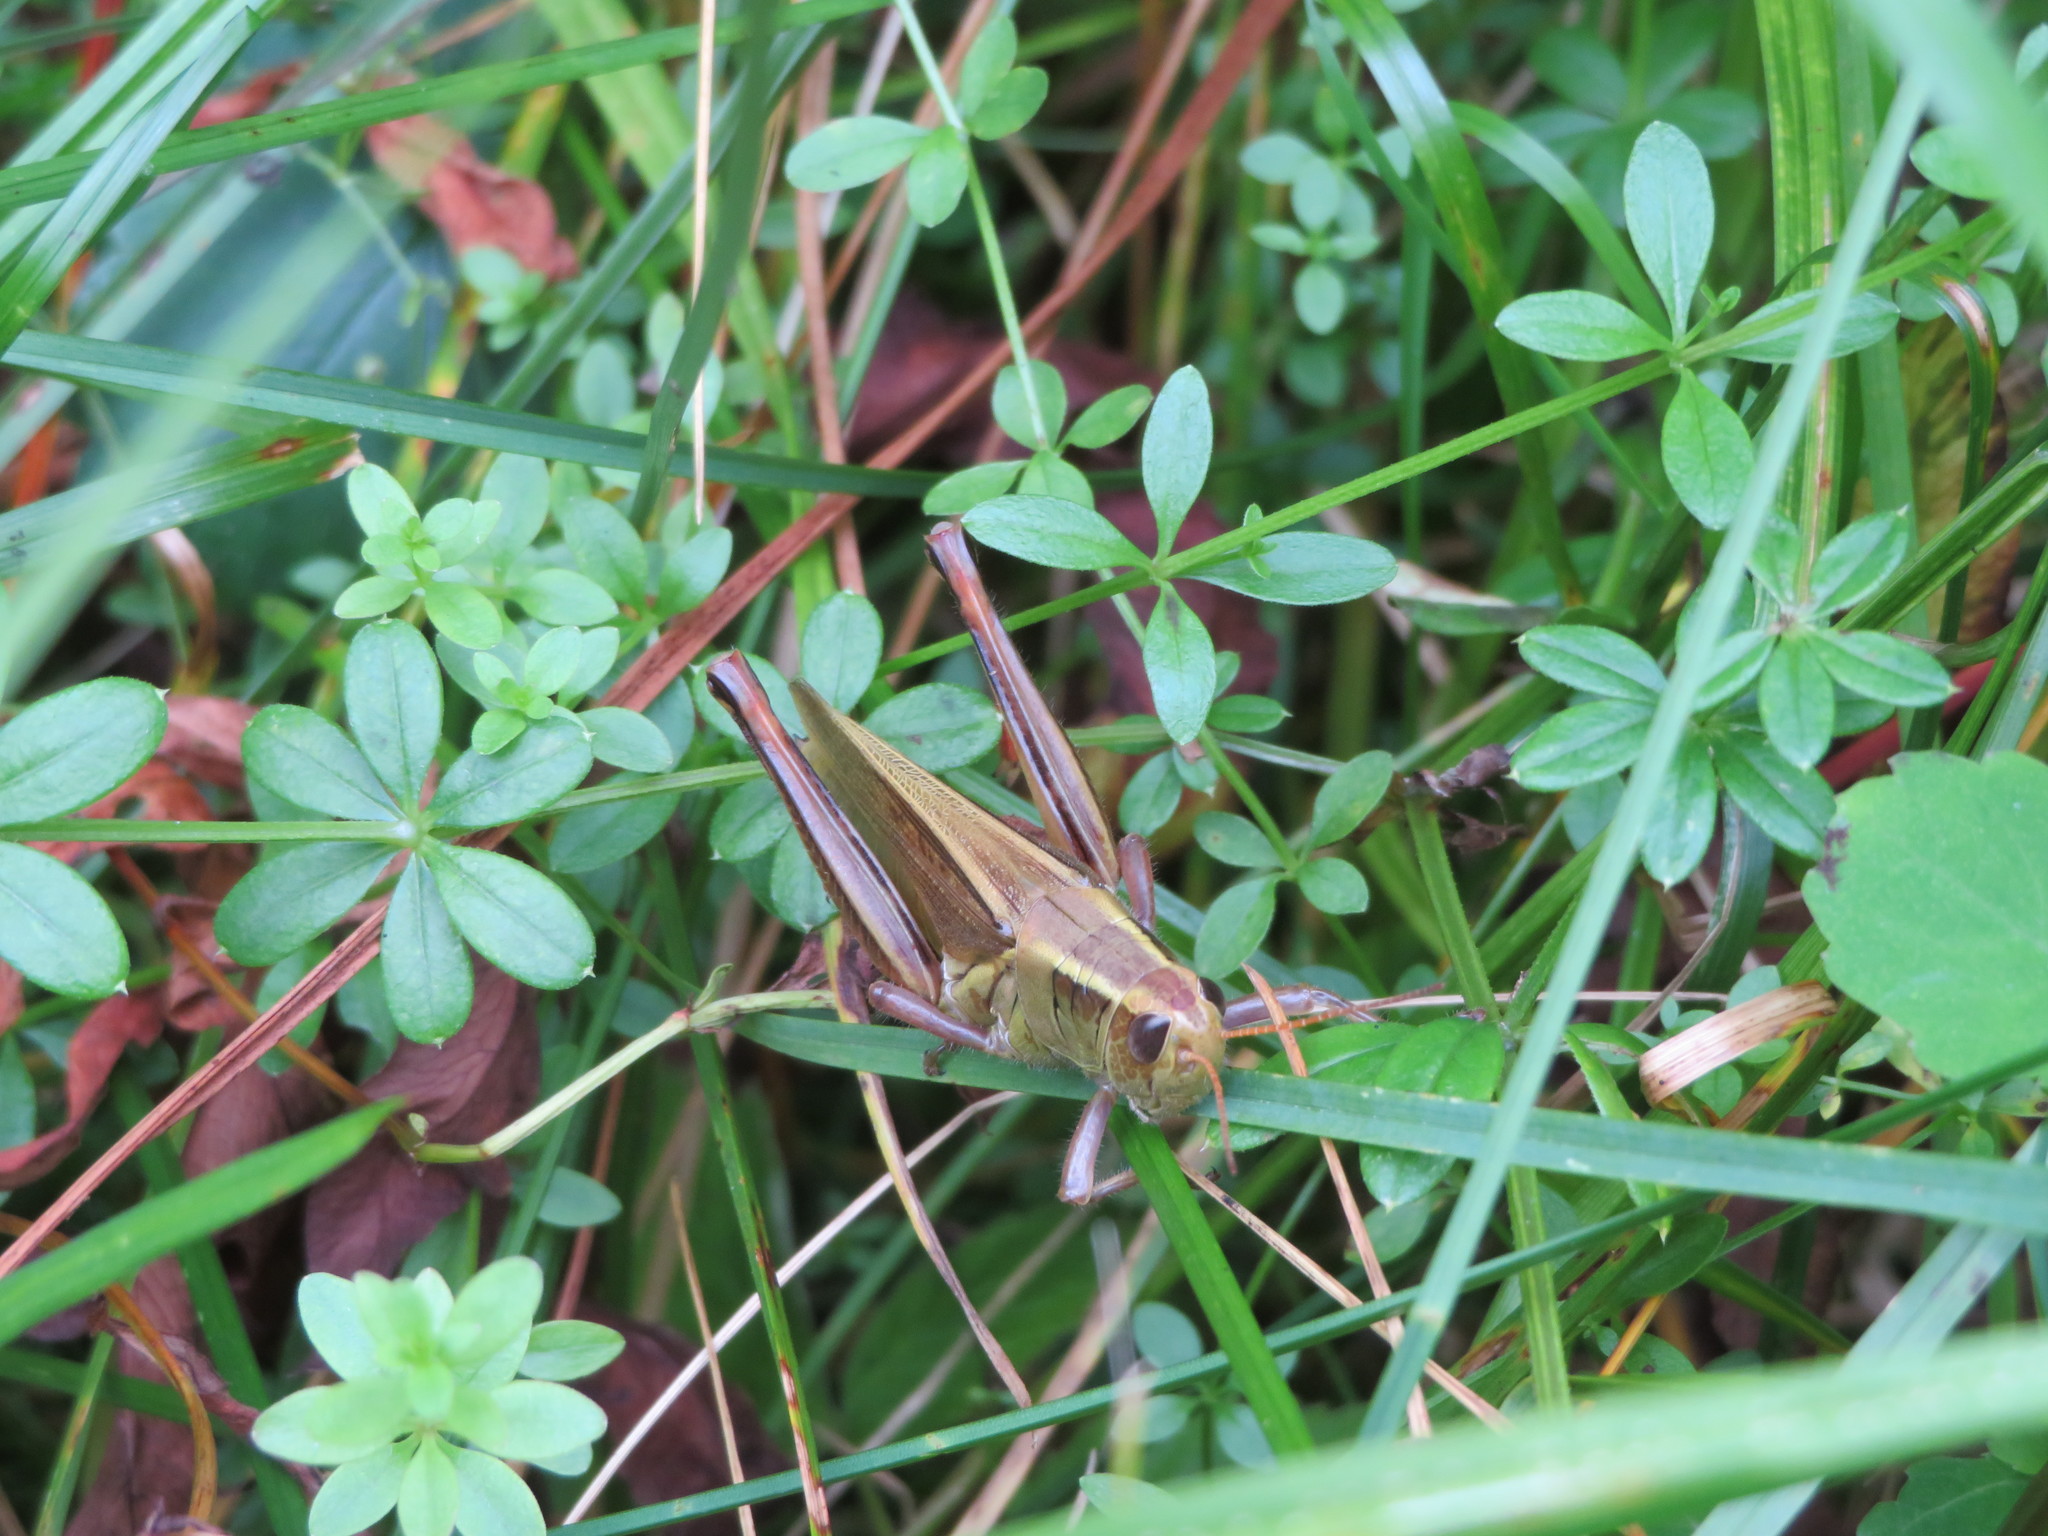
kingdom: Animalia
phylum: Arthropoda
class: Insecta
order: Orthoptera
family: Acrididae
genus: Melanoplus
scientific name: Melanoplus bivittatus
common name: Two-striped grasshopper
